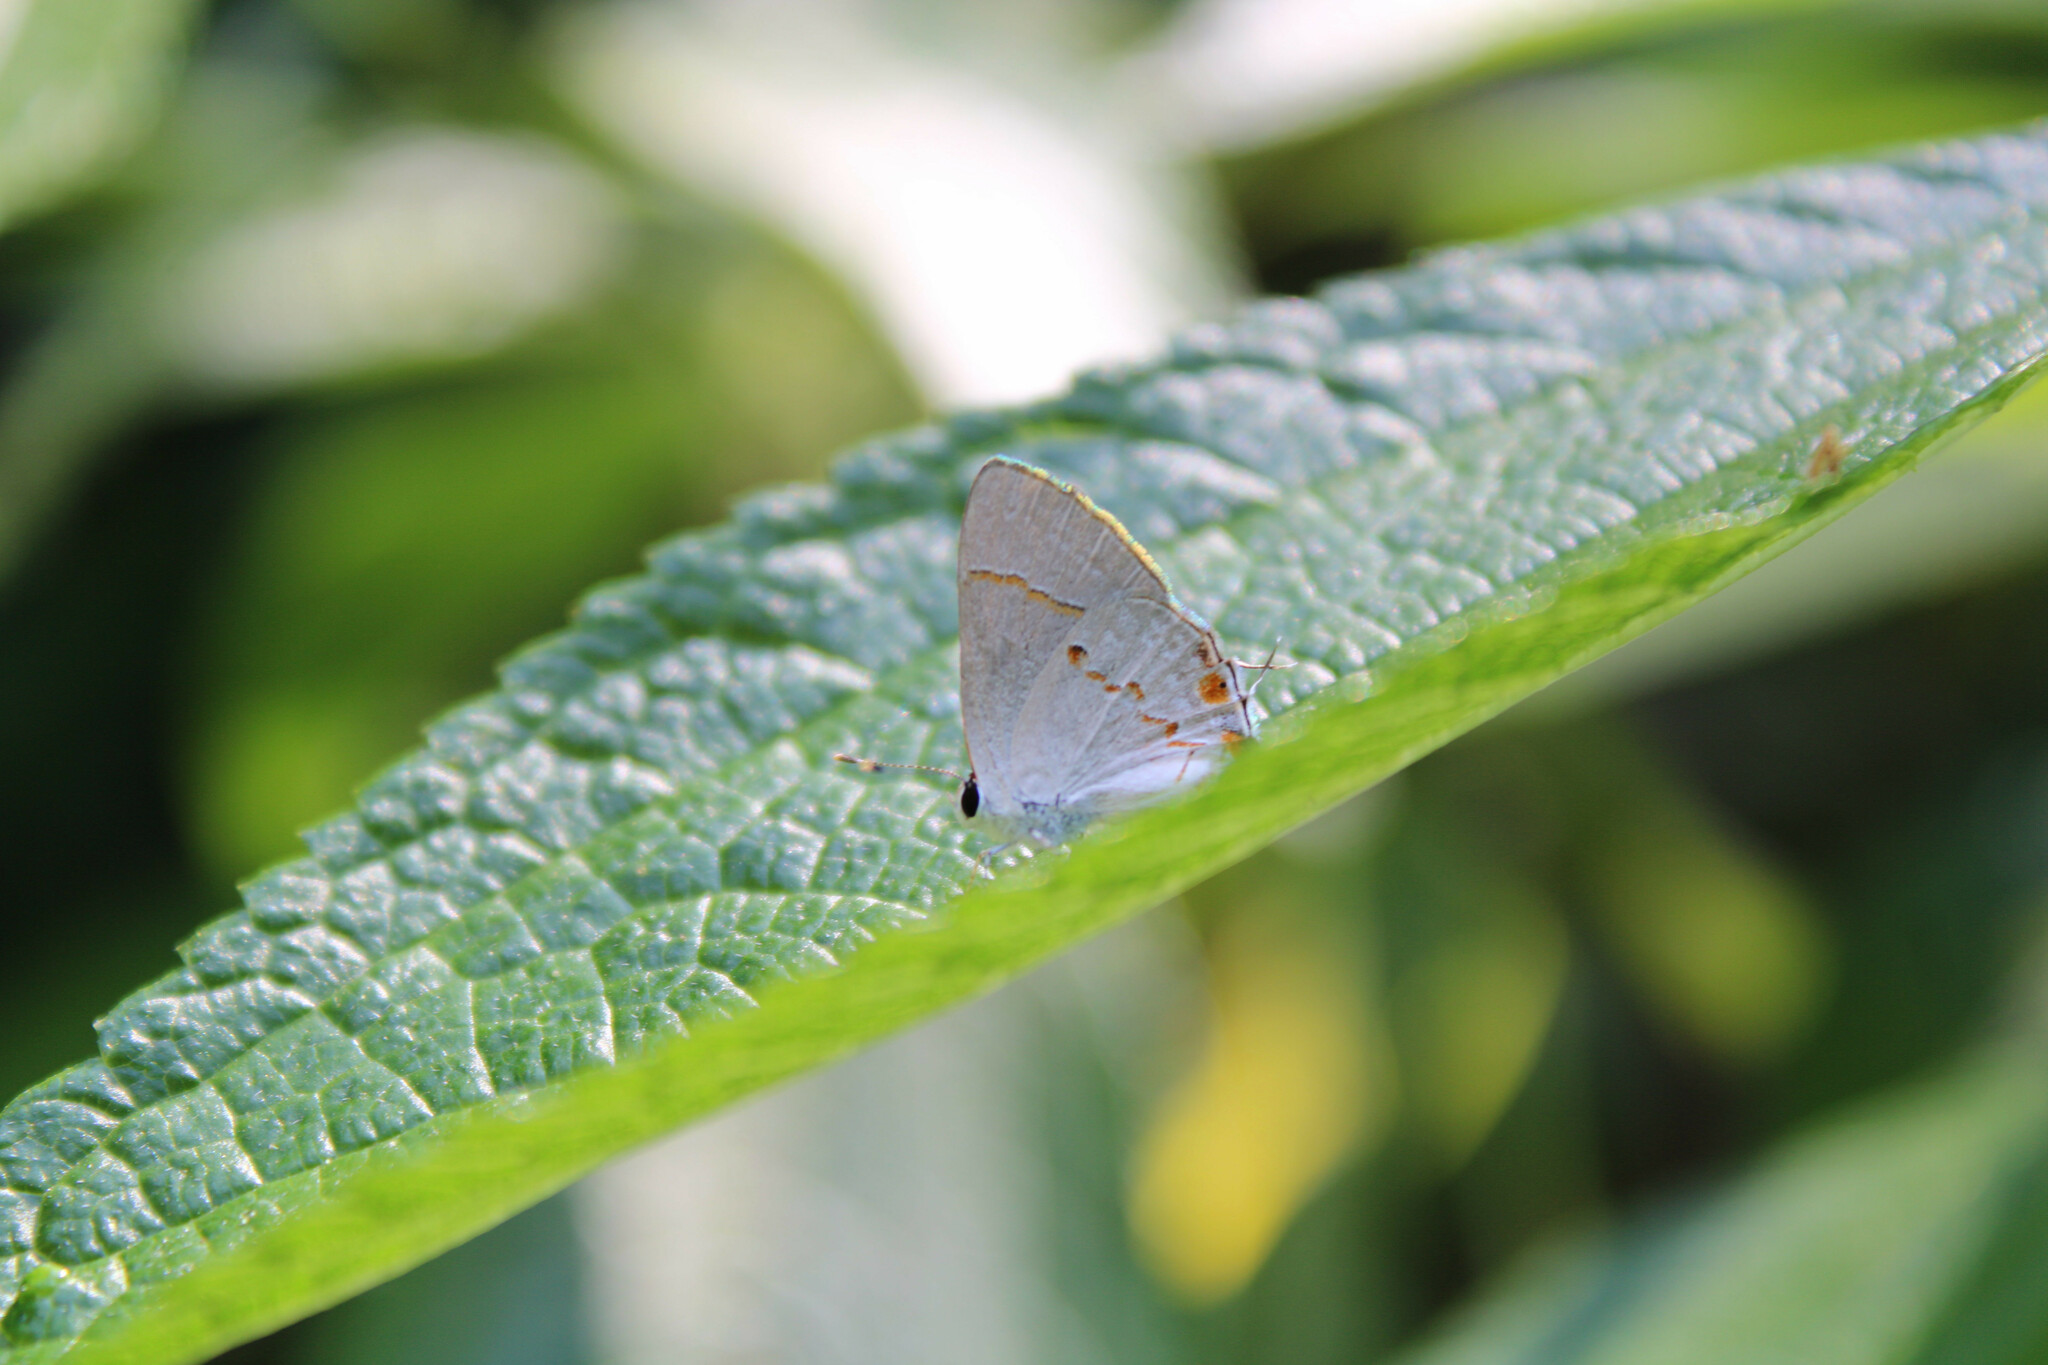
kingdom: Animalia
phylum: Arthropoda
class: Insecta
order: Lepidoptera
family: Lycaenidae
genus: Thecla
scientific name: Thecla azia
